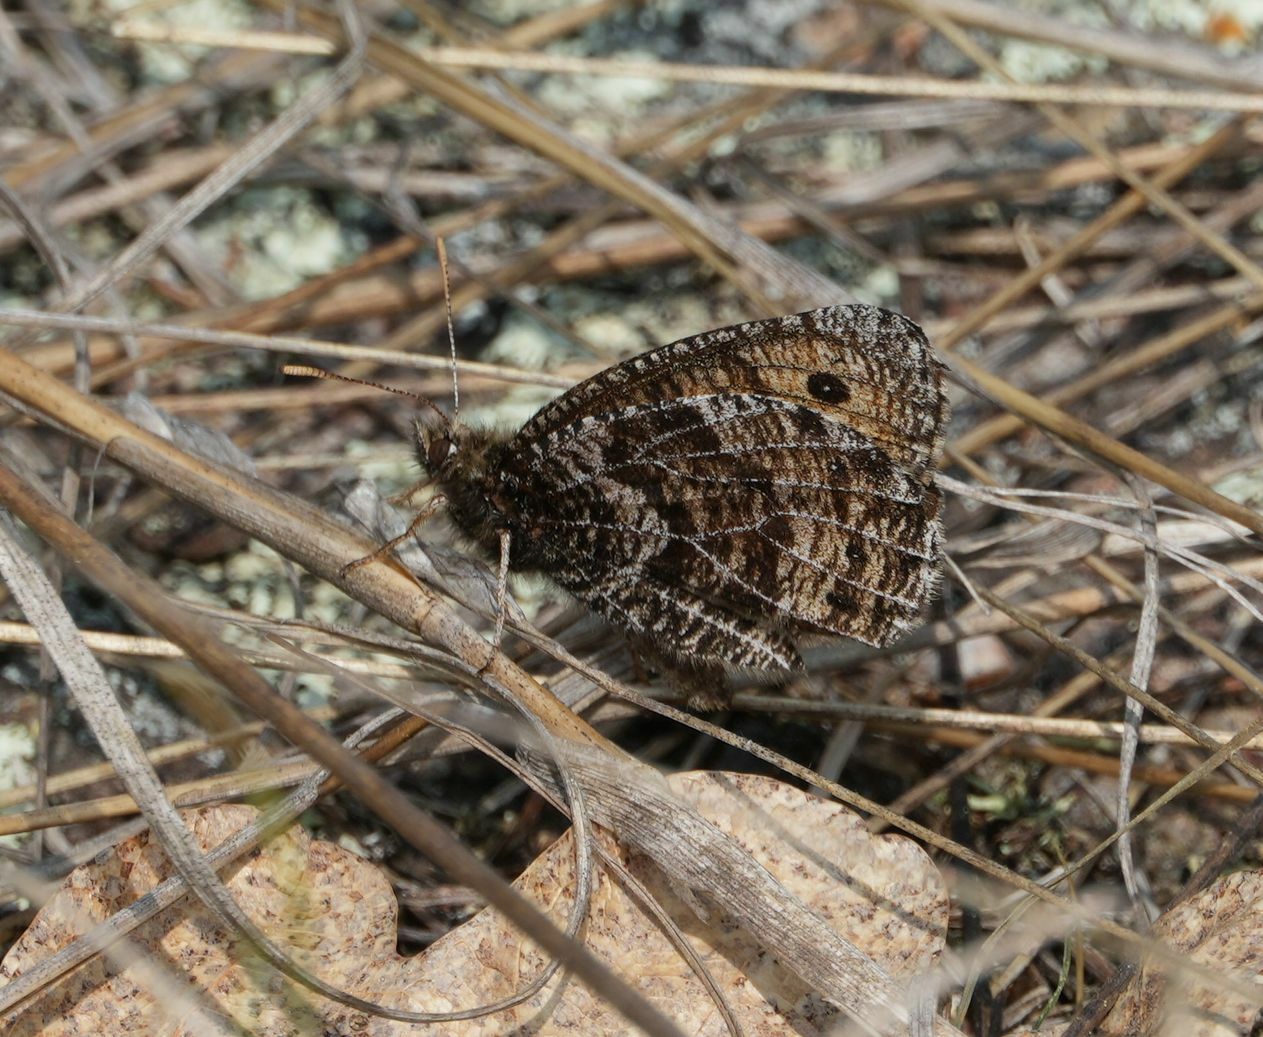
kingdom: Animalia
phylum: Arthropoda
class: Insecta
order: Lepidoptera
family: Nymphalidae
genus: Oeneis
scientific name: Oeneis chryxus
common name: Chryxus arctic
